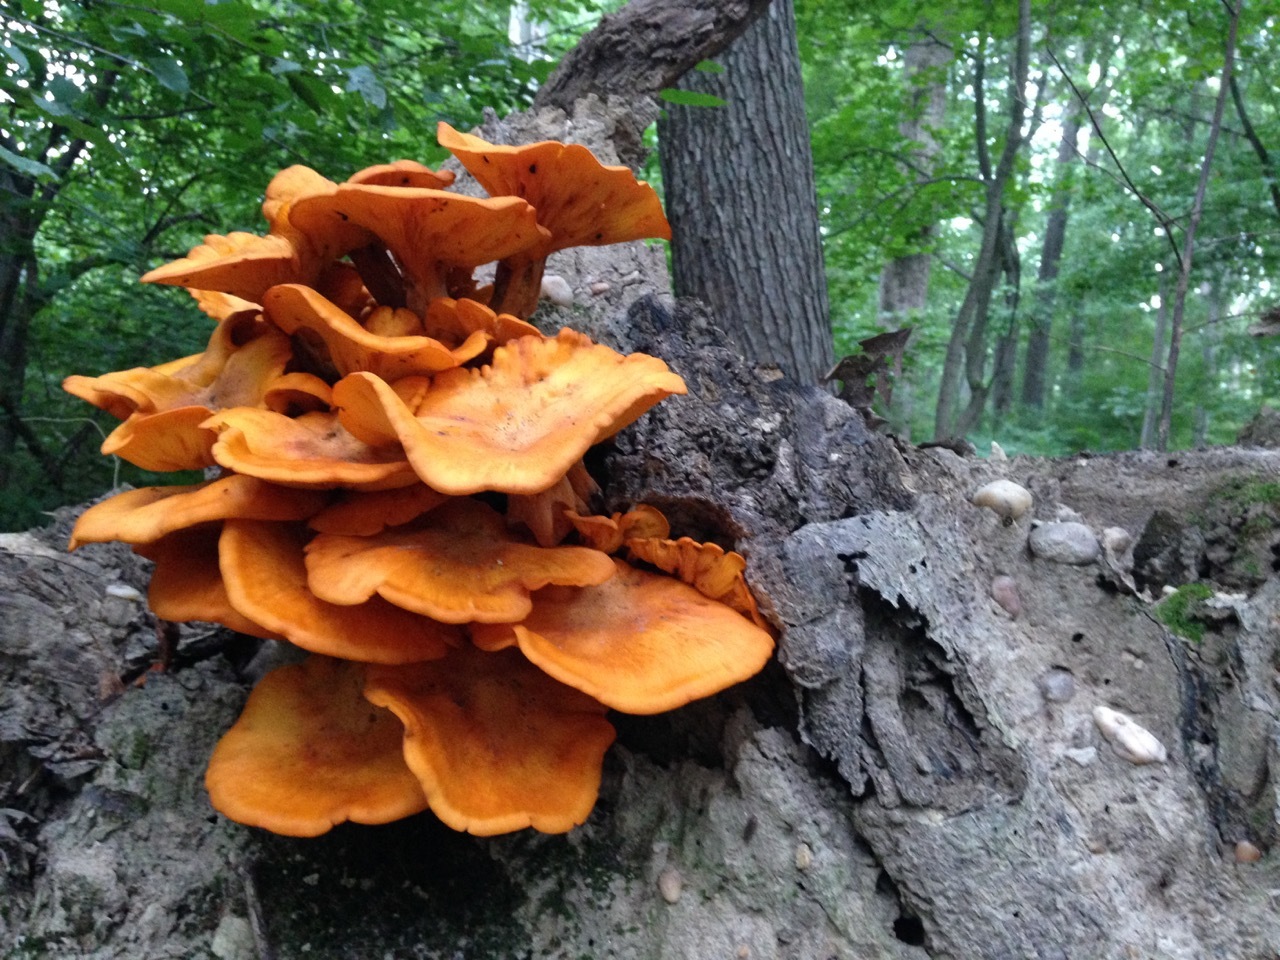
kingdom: Fungi
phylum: Basidiomycota
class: Agaricomycetes
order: Agaricales
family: Omphalotaceae
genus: Omphalotus
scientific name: Omphalotus illudens
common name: Jack o lantern
